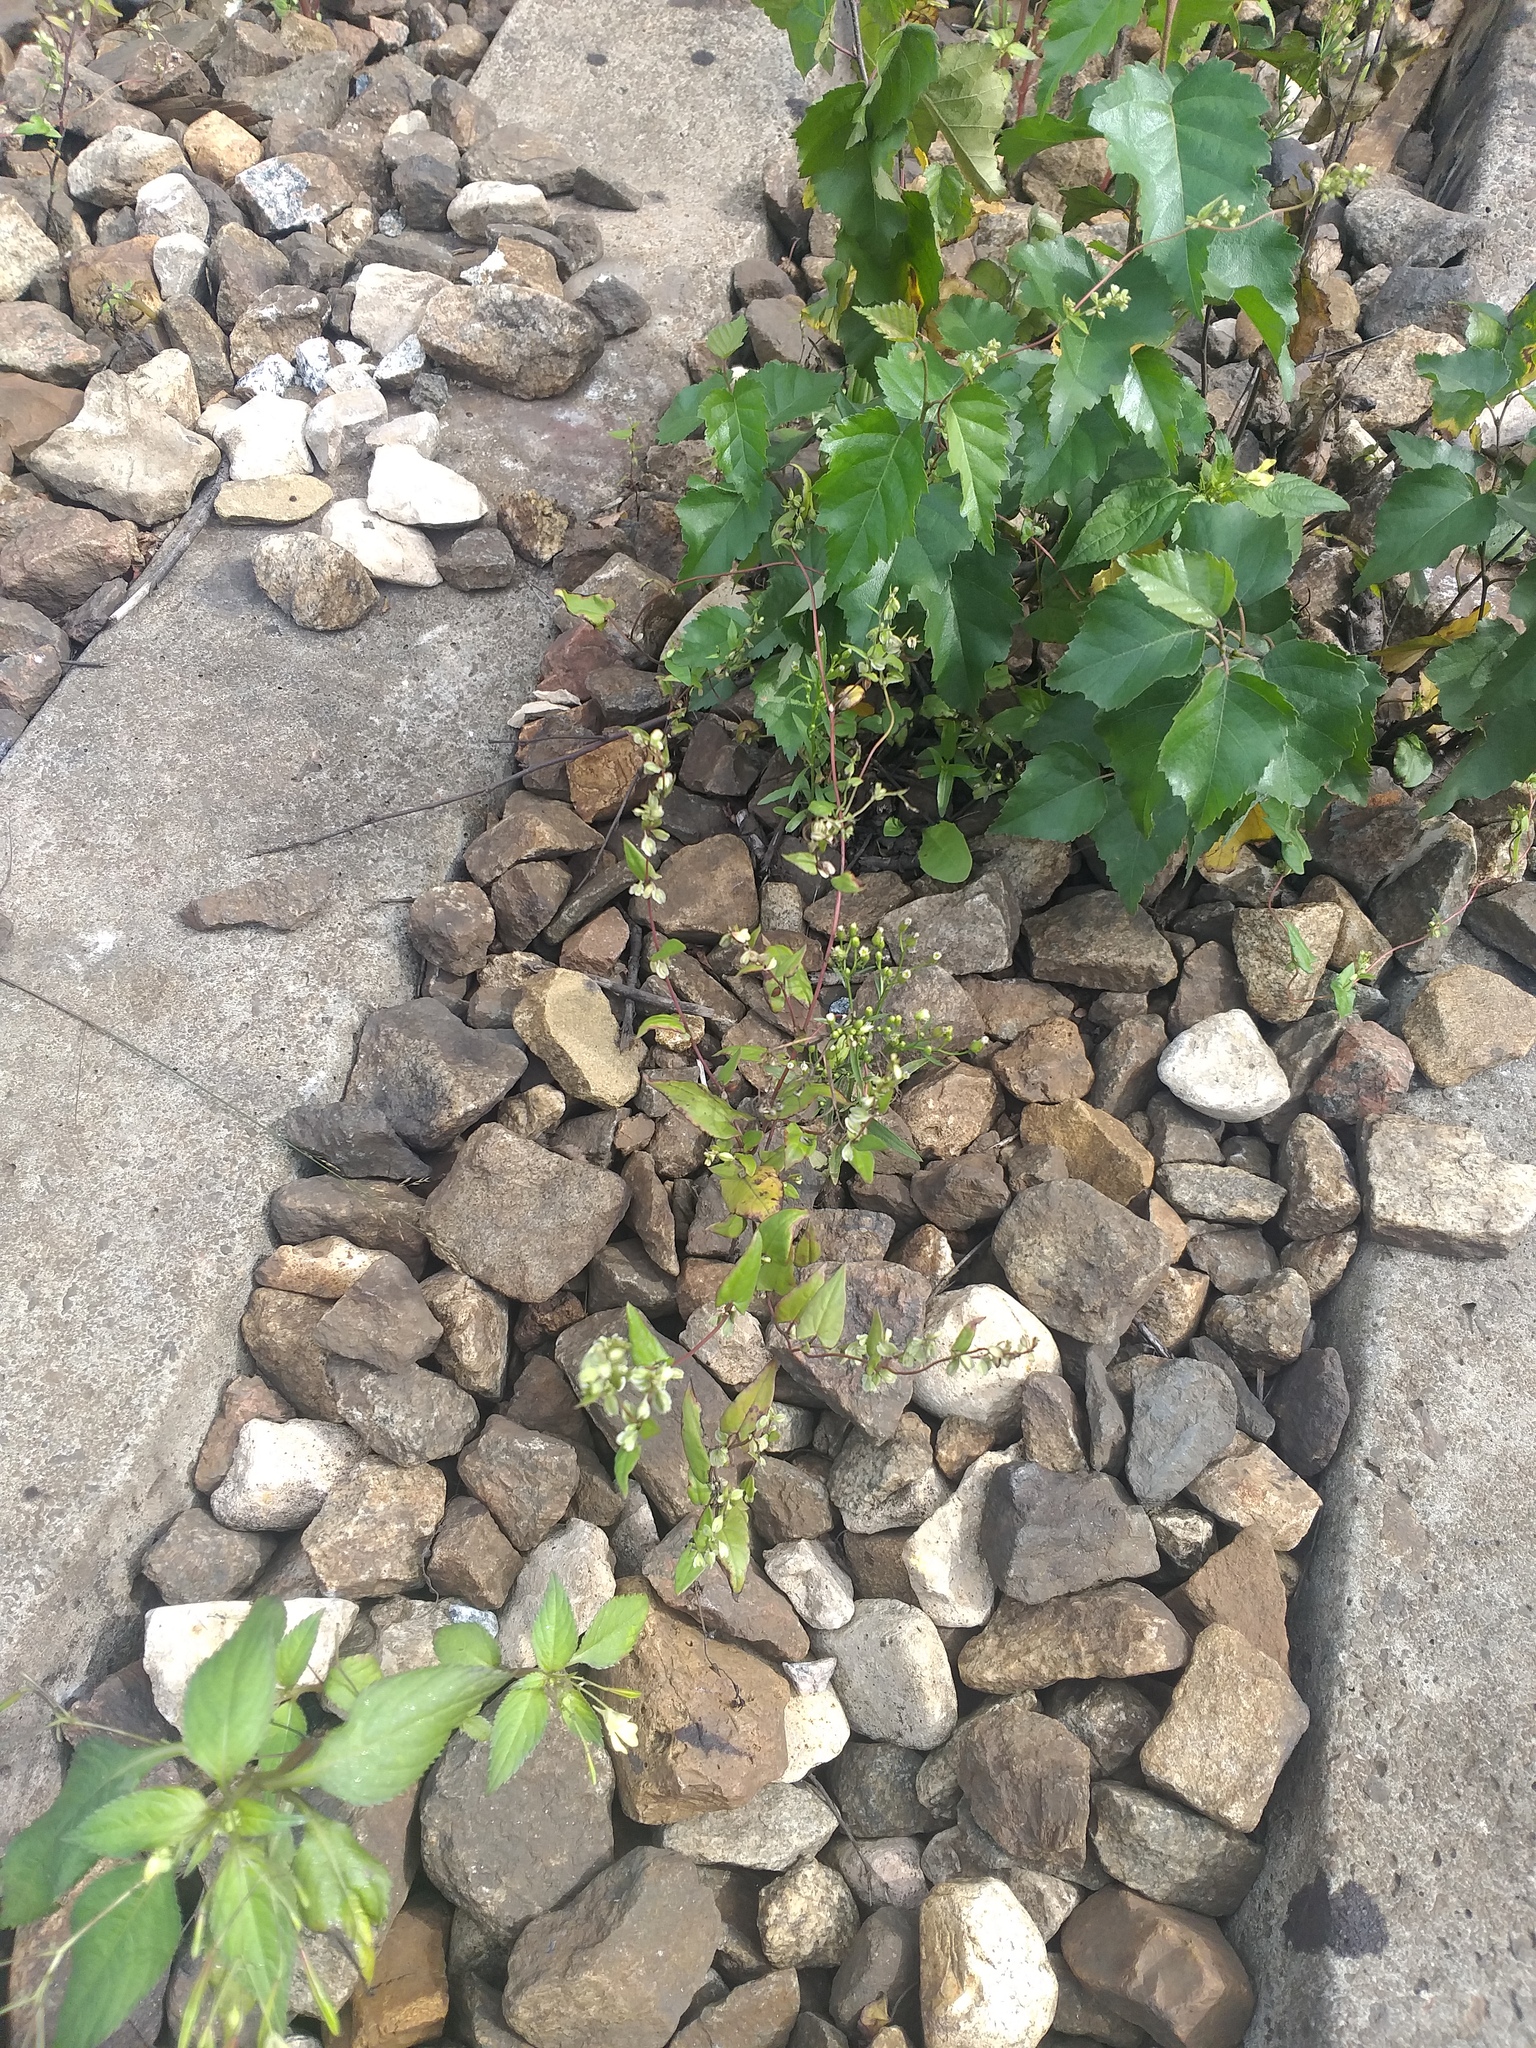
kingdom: Plantae
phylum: Tracheophyta
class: Magnoliopsida
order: Caryophyllales
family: Polygonaceae
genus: Fallopia
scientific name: Fallopia dumetorum
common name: Copse-bindweed
